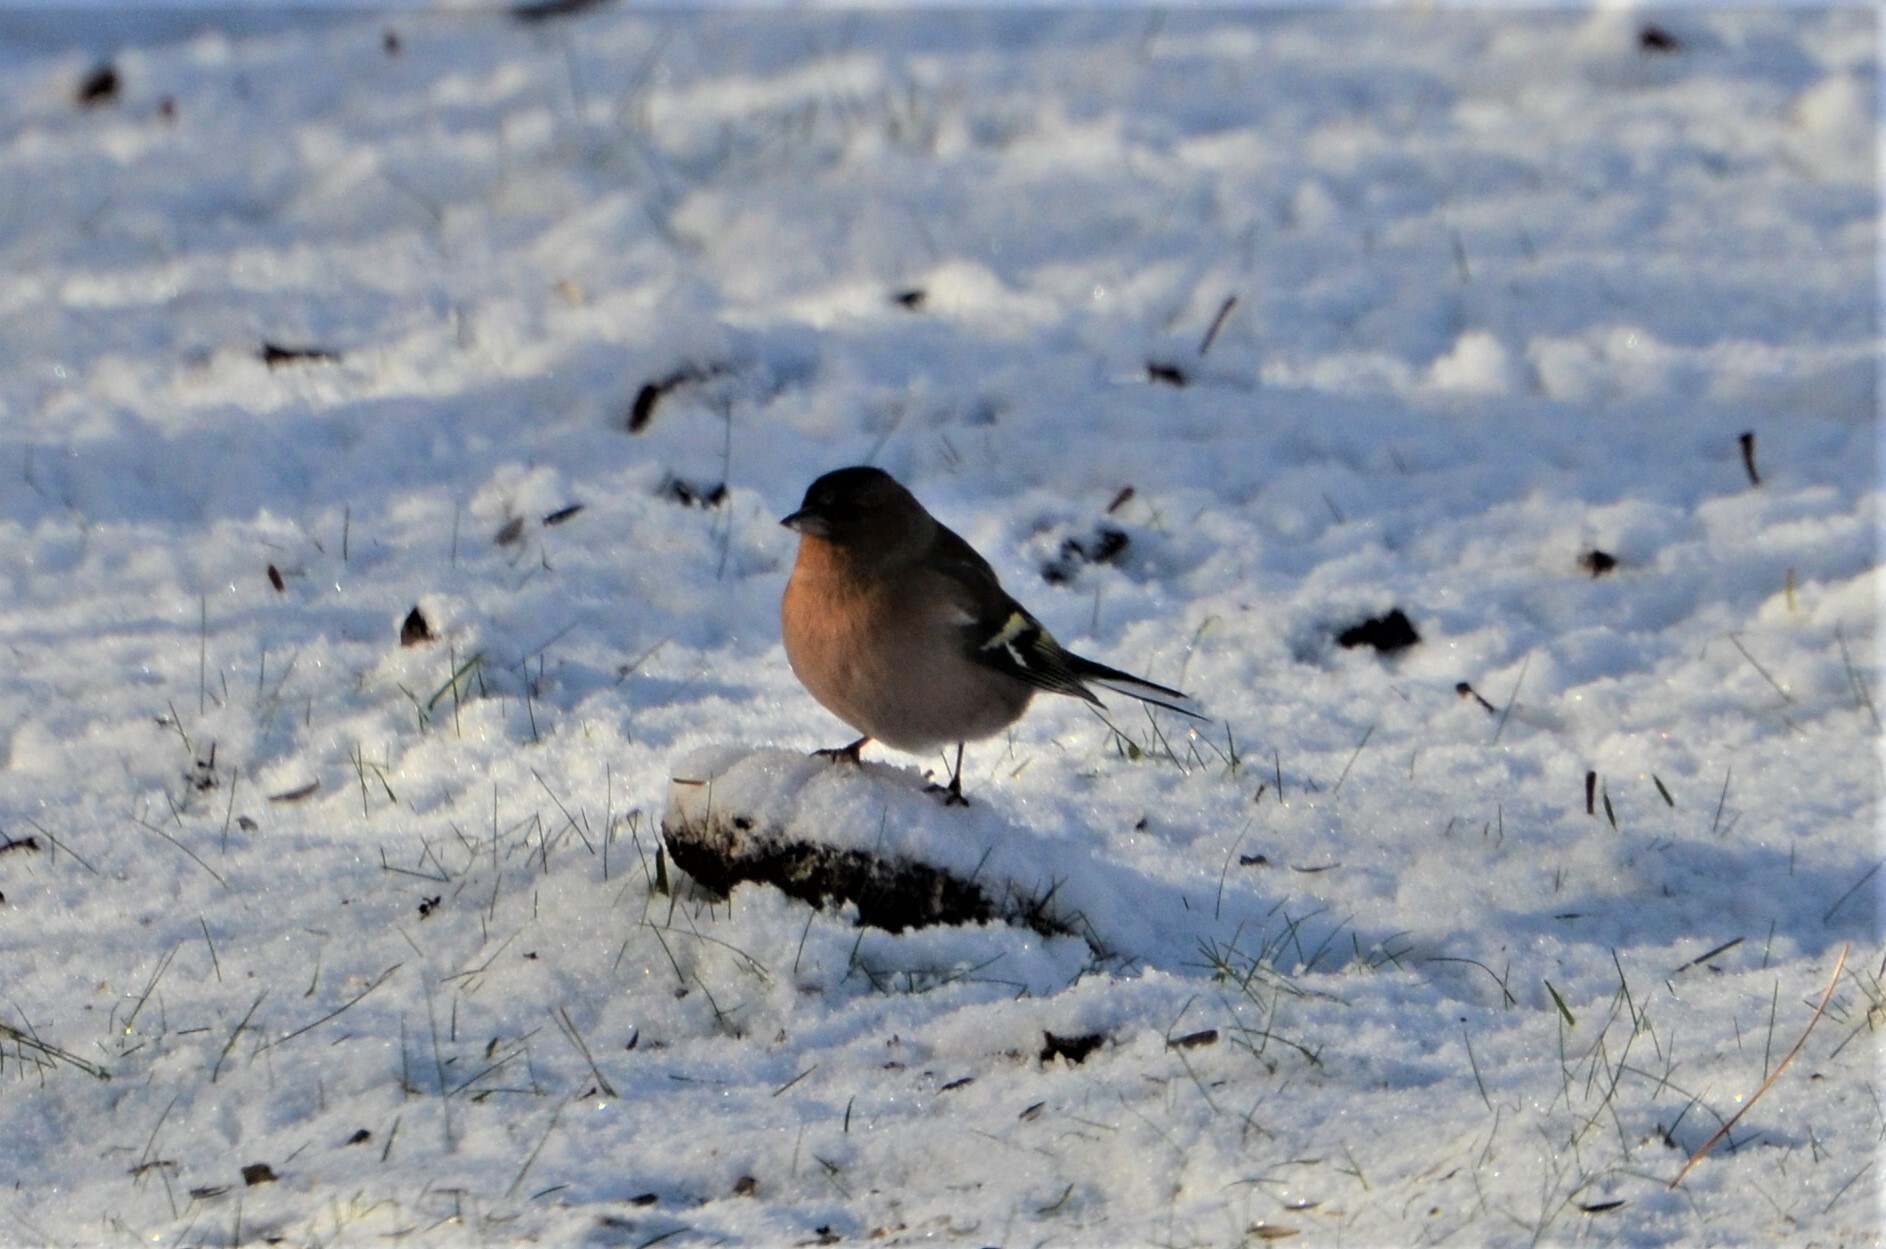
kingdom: Animalia
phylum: Chordata
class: Aves
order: Passeriformes
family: Fringillidae
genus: Fringilla
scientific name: Fringilla coelebs
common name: Common chaffinch
